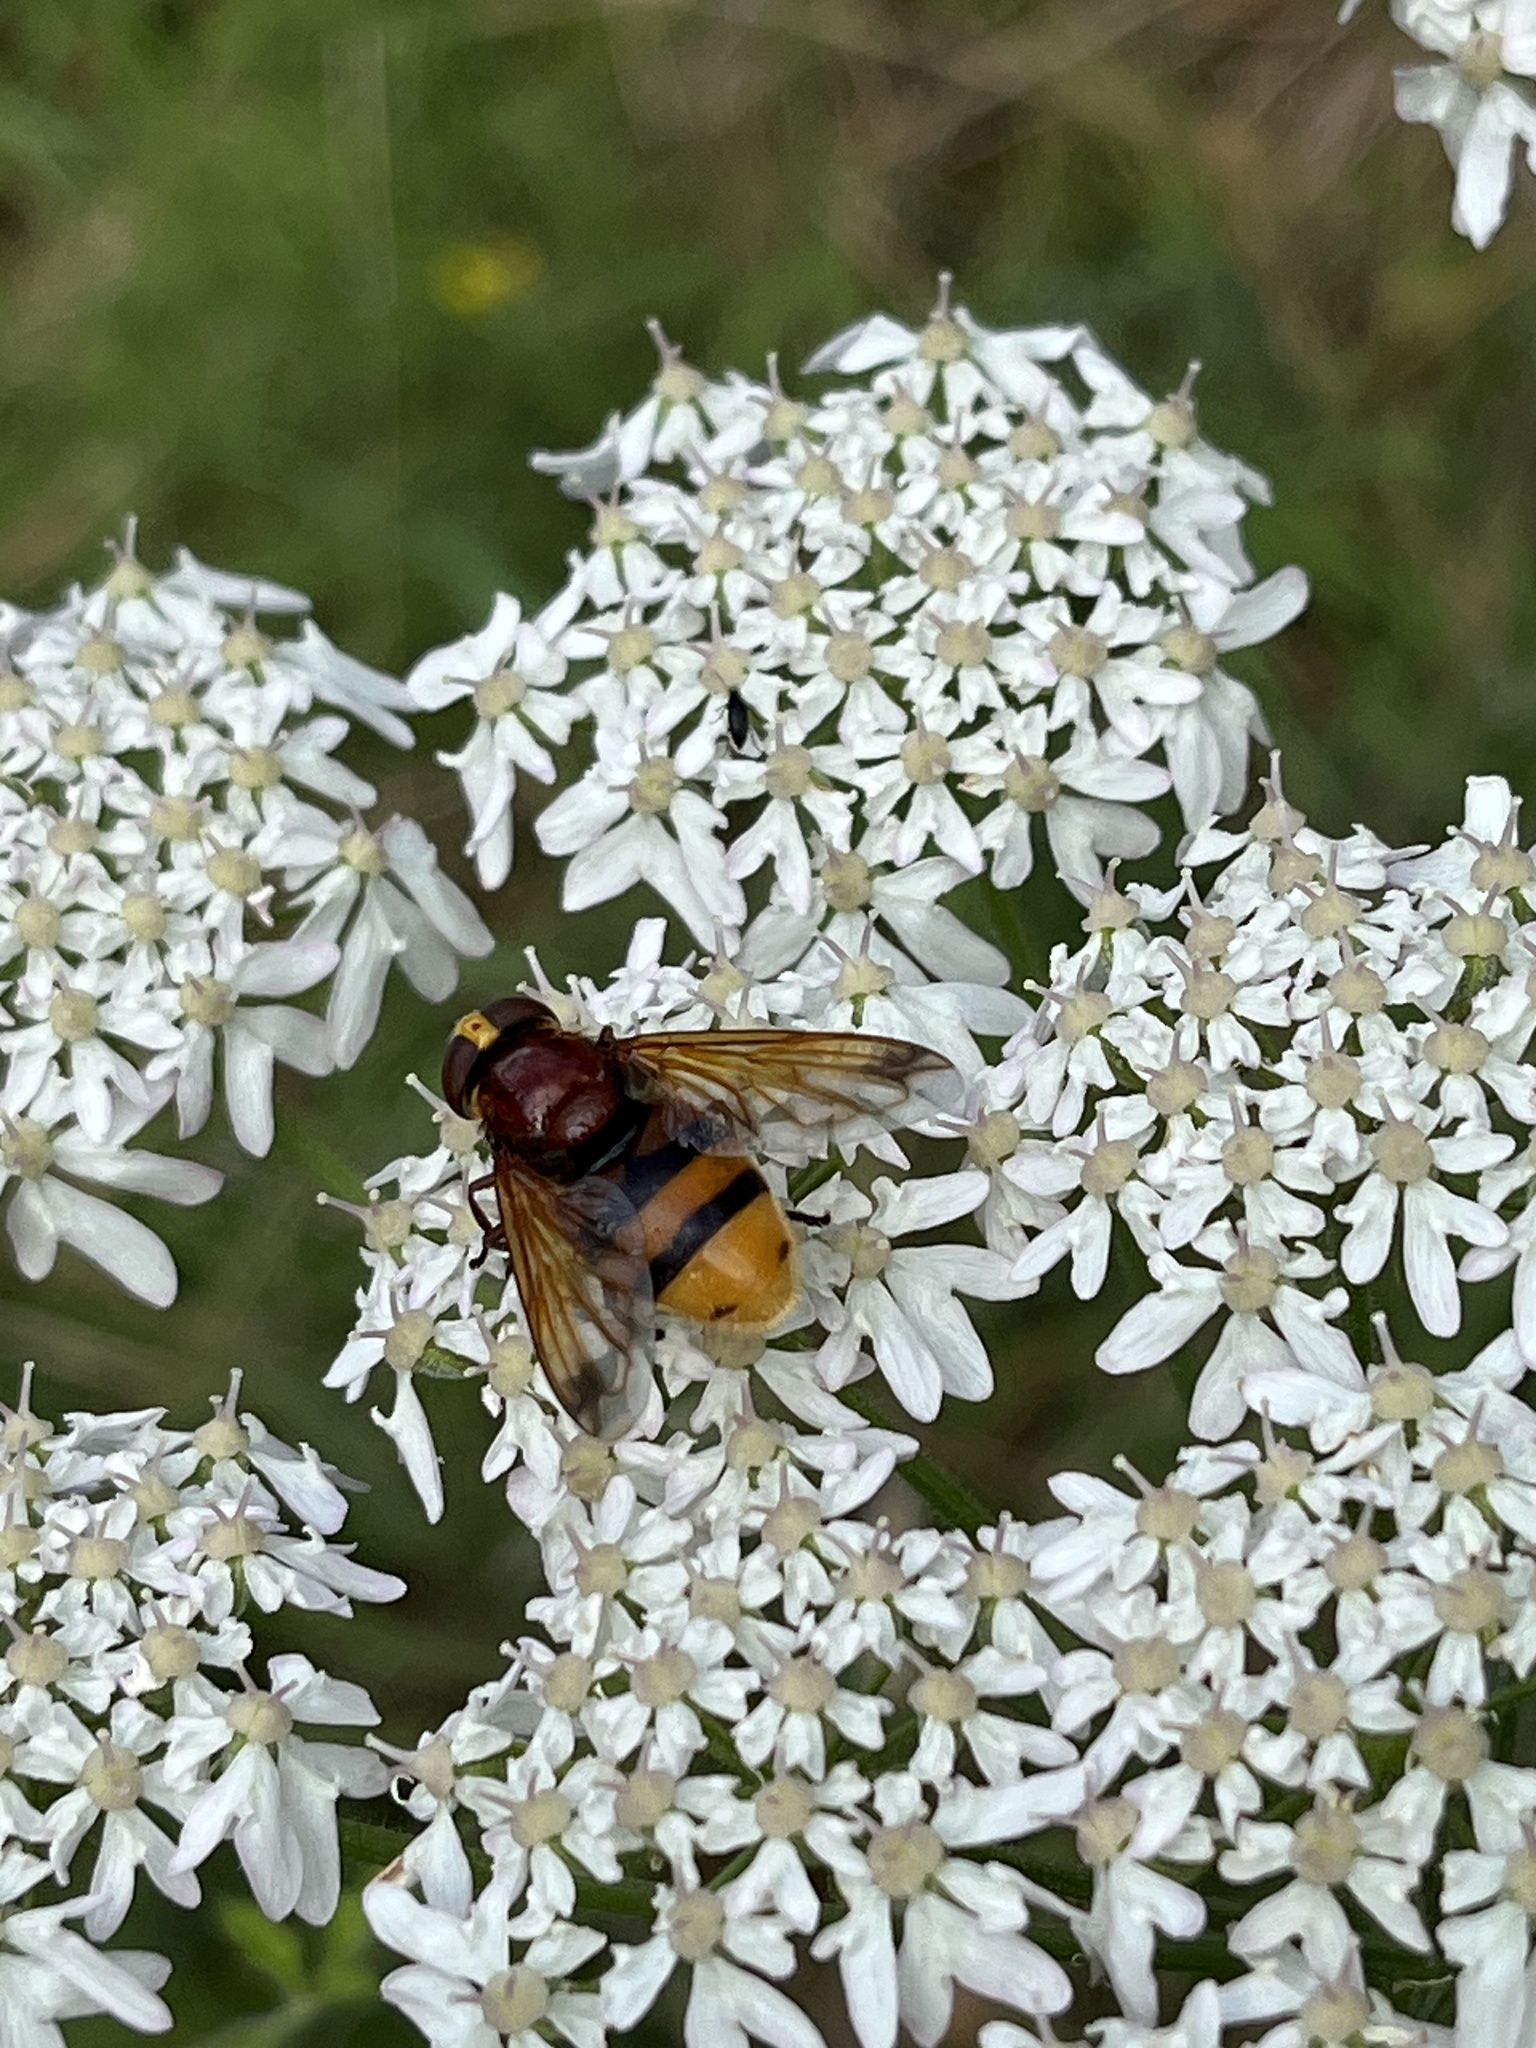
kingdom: Animalia
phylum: Arthropoda
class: Insecta
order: Diptera
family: Syrphidae
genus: Volucella
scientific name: Volucella zonaria
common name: Hornet hoverfly
